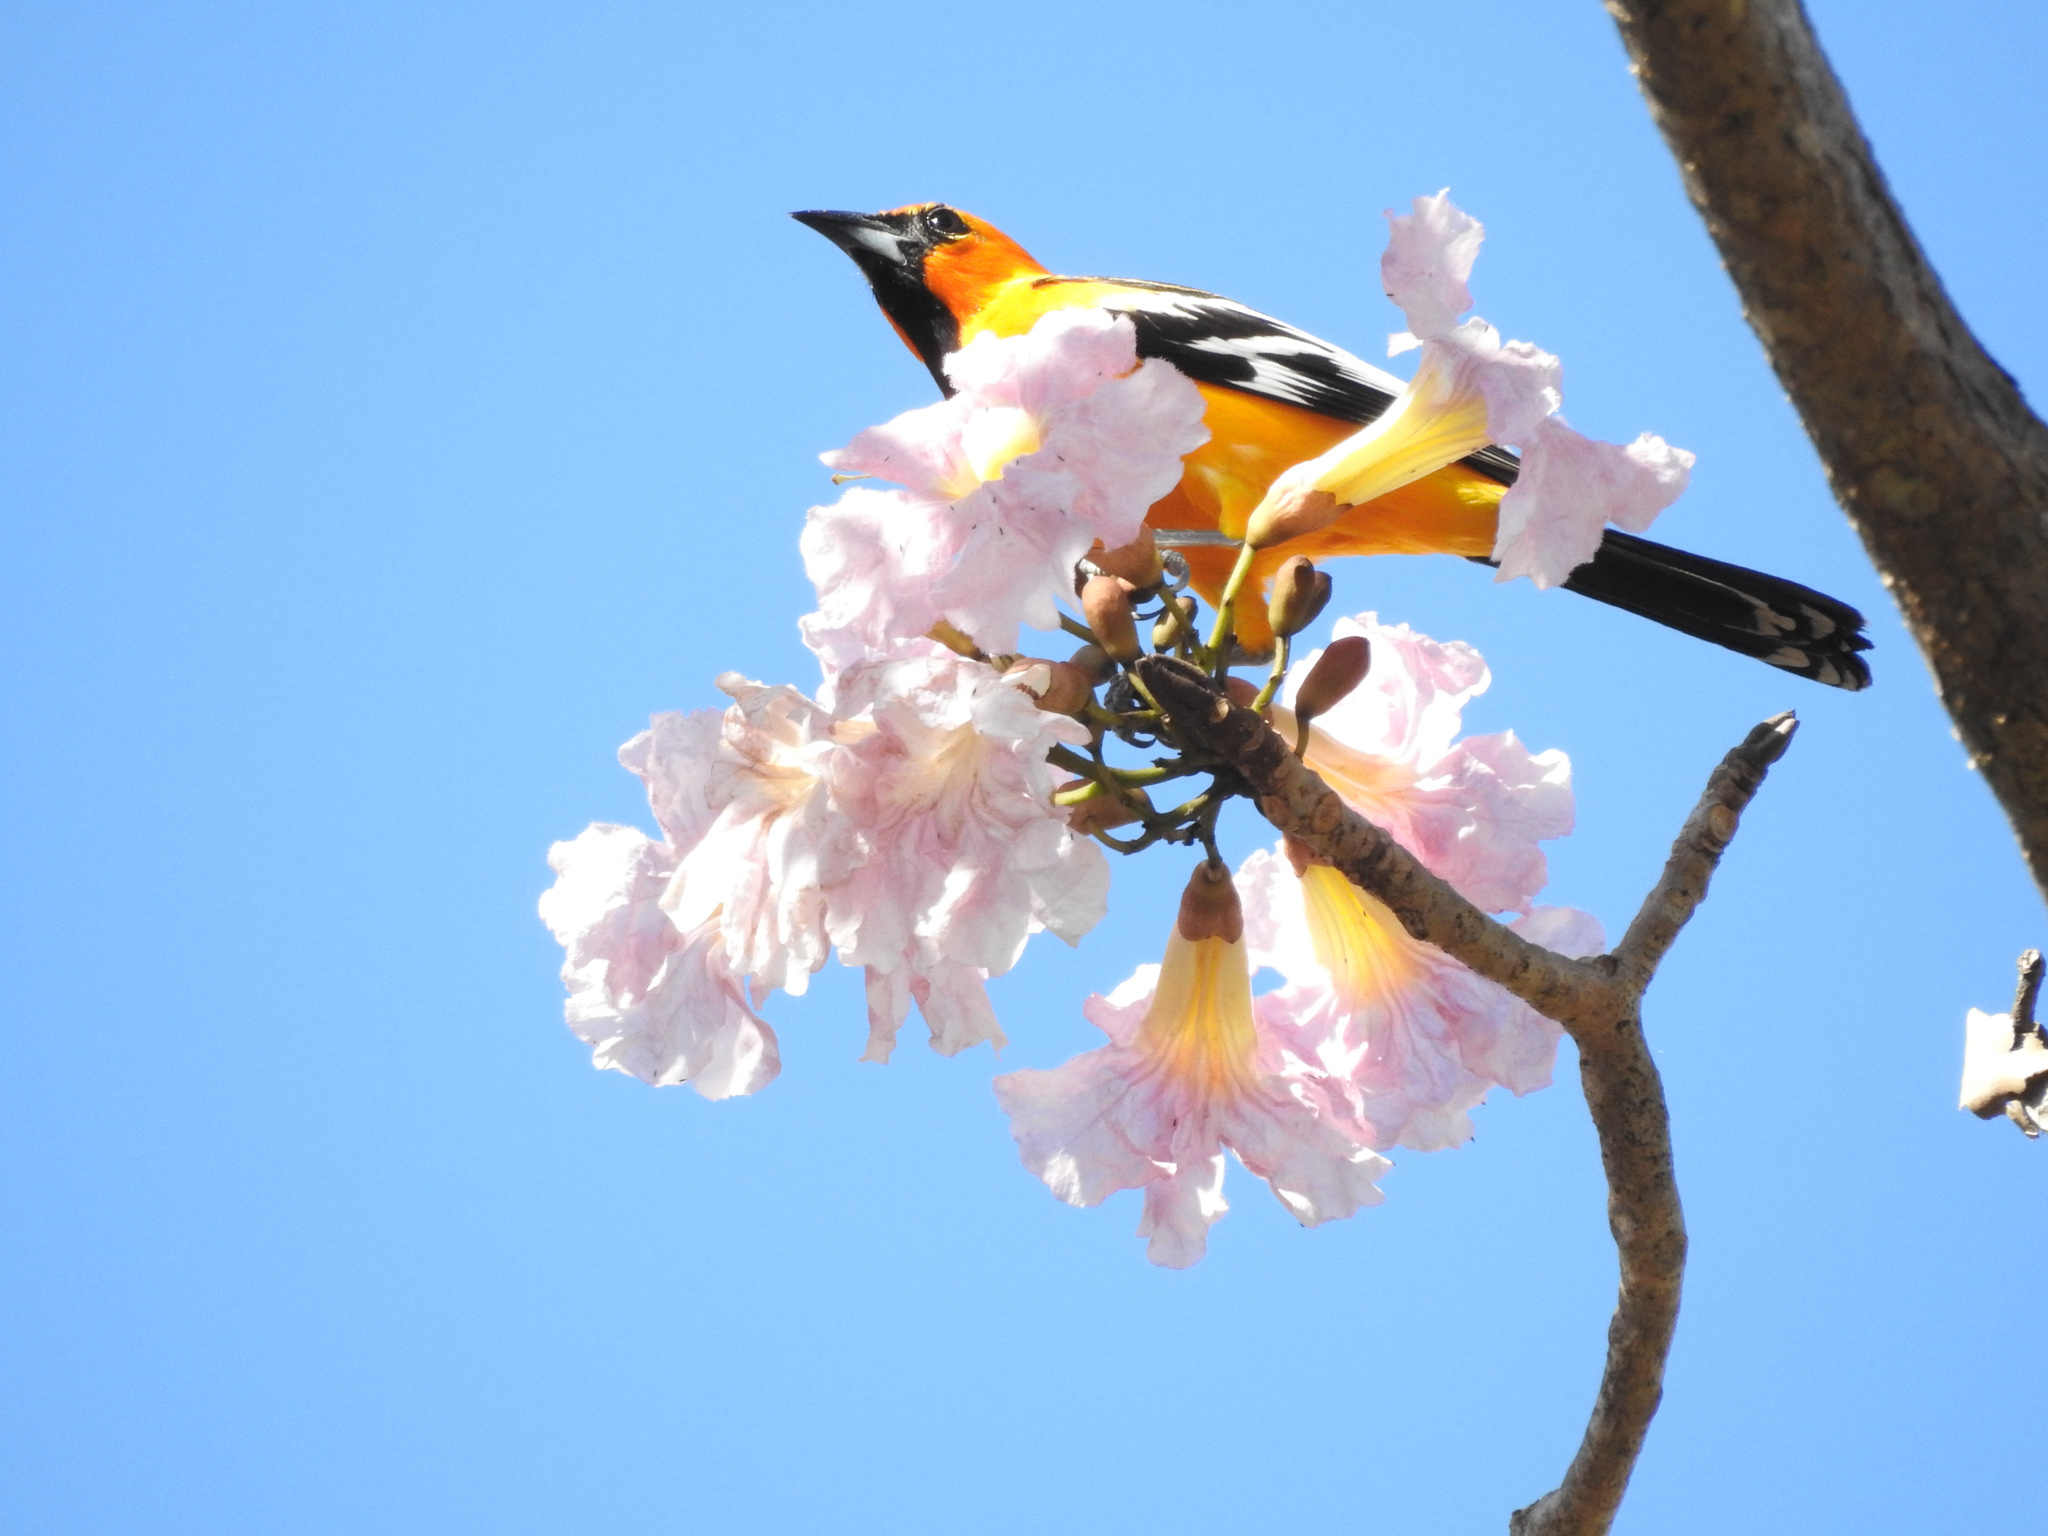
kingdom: Plantae
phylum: Tracheophyta
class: Magnoliopsida
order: Lamiales
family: Bignoniaceae
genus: Tabebuia
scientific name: Tabebuia rosea
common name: Pink poui
